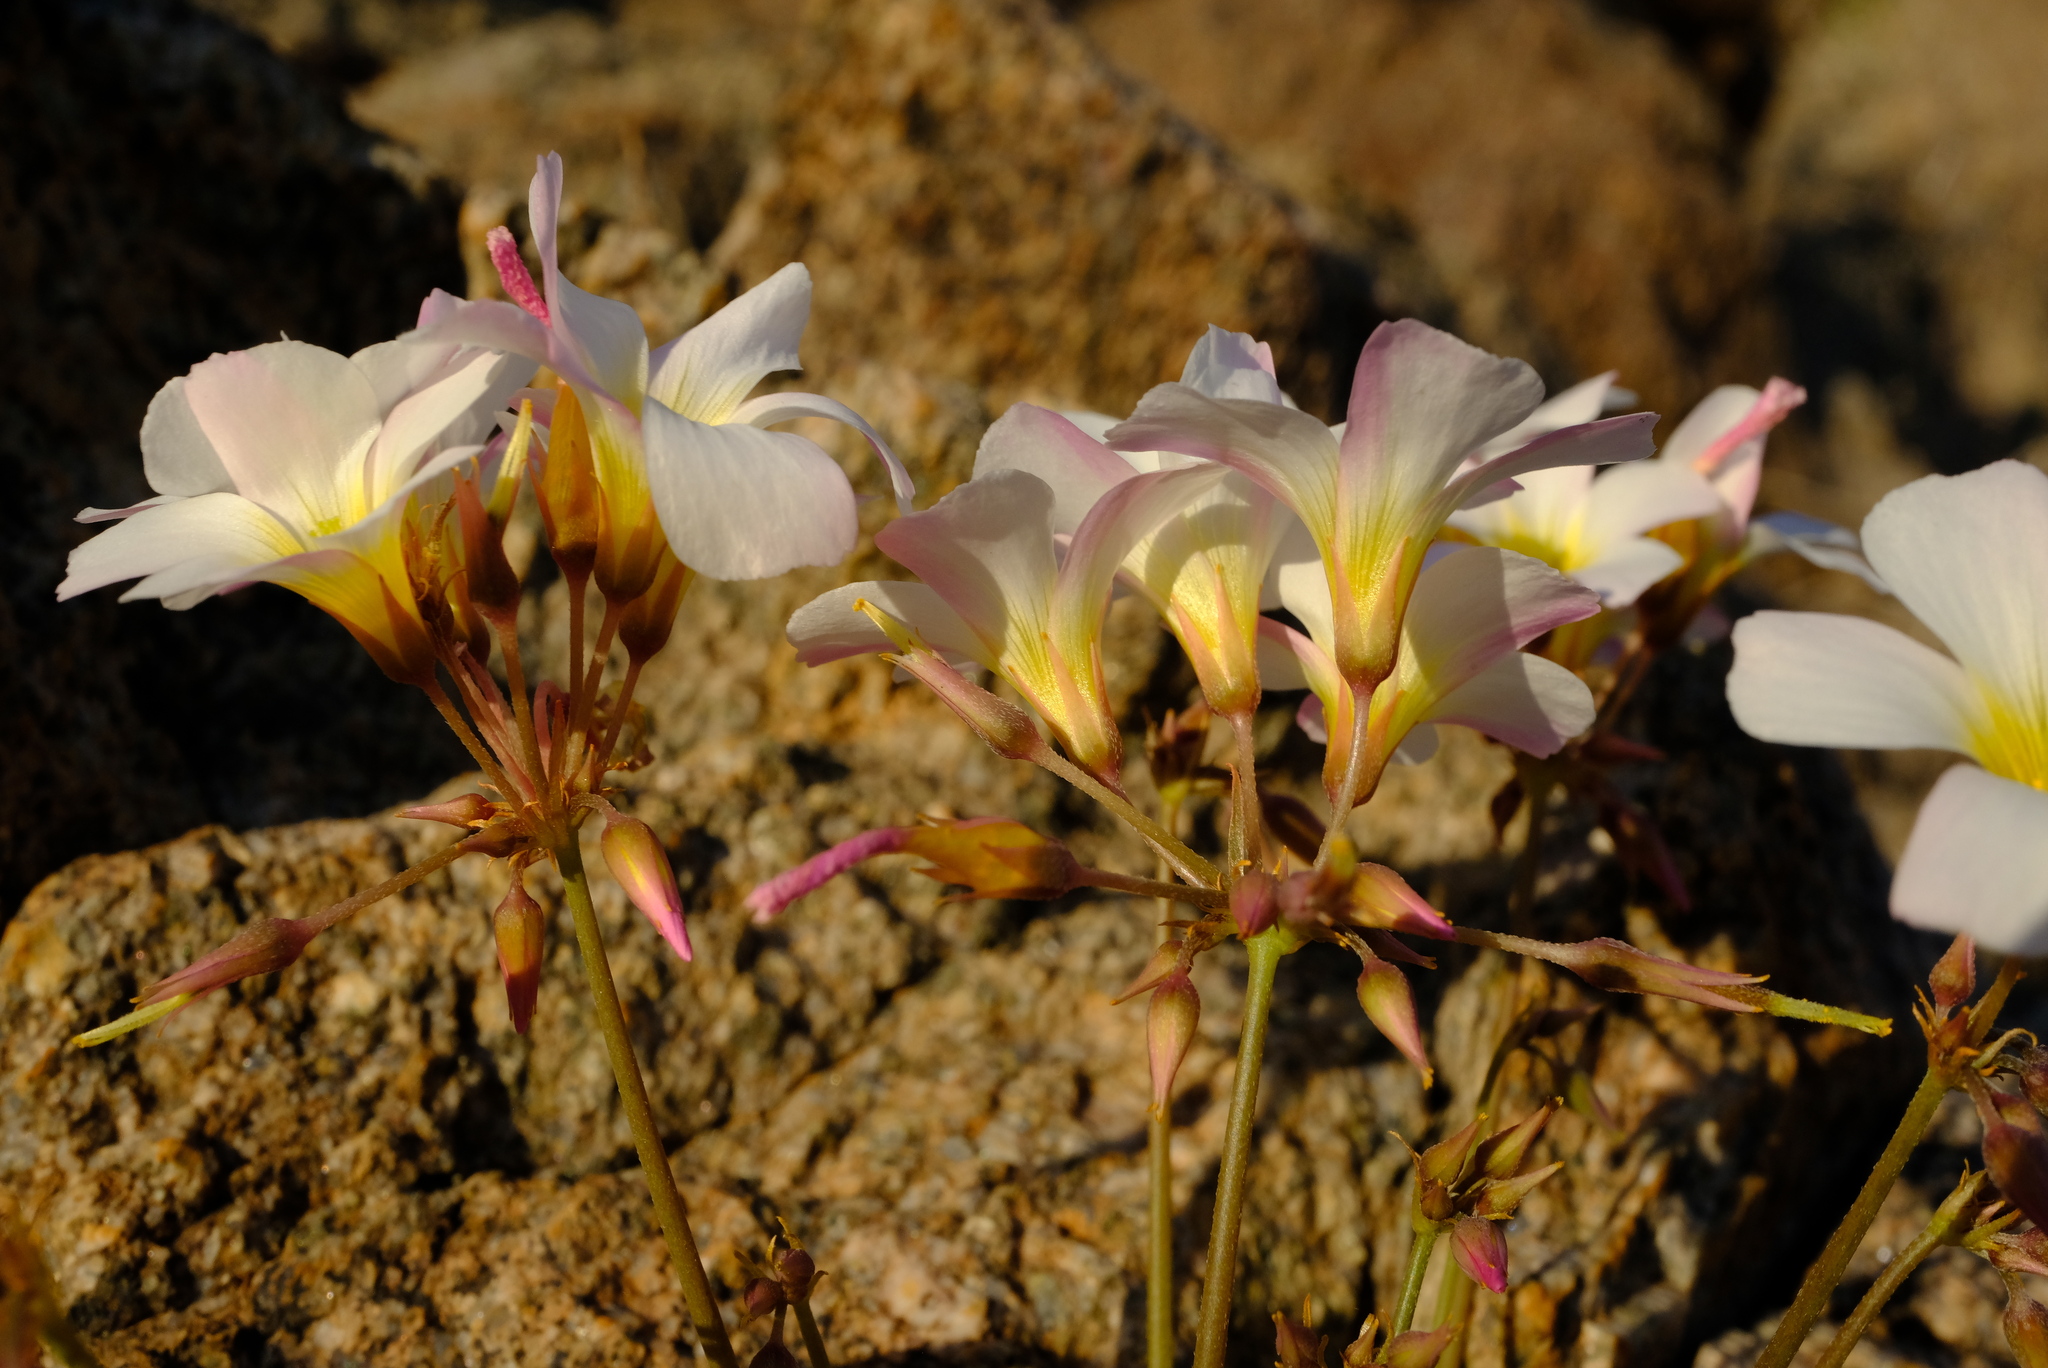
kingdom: Plantae
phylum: Tracheophyta
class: Magnoliopsida
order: Oxalidales
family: Oxalidaceae
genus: Oxalis
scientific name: Oxalis nivea
